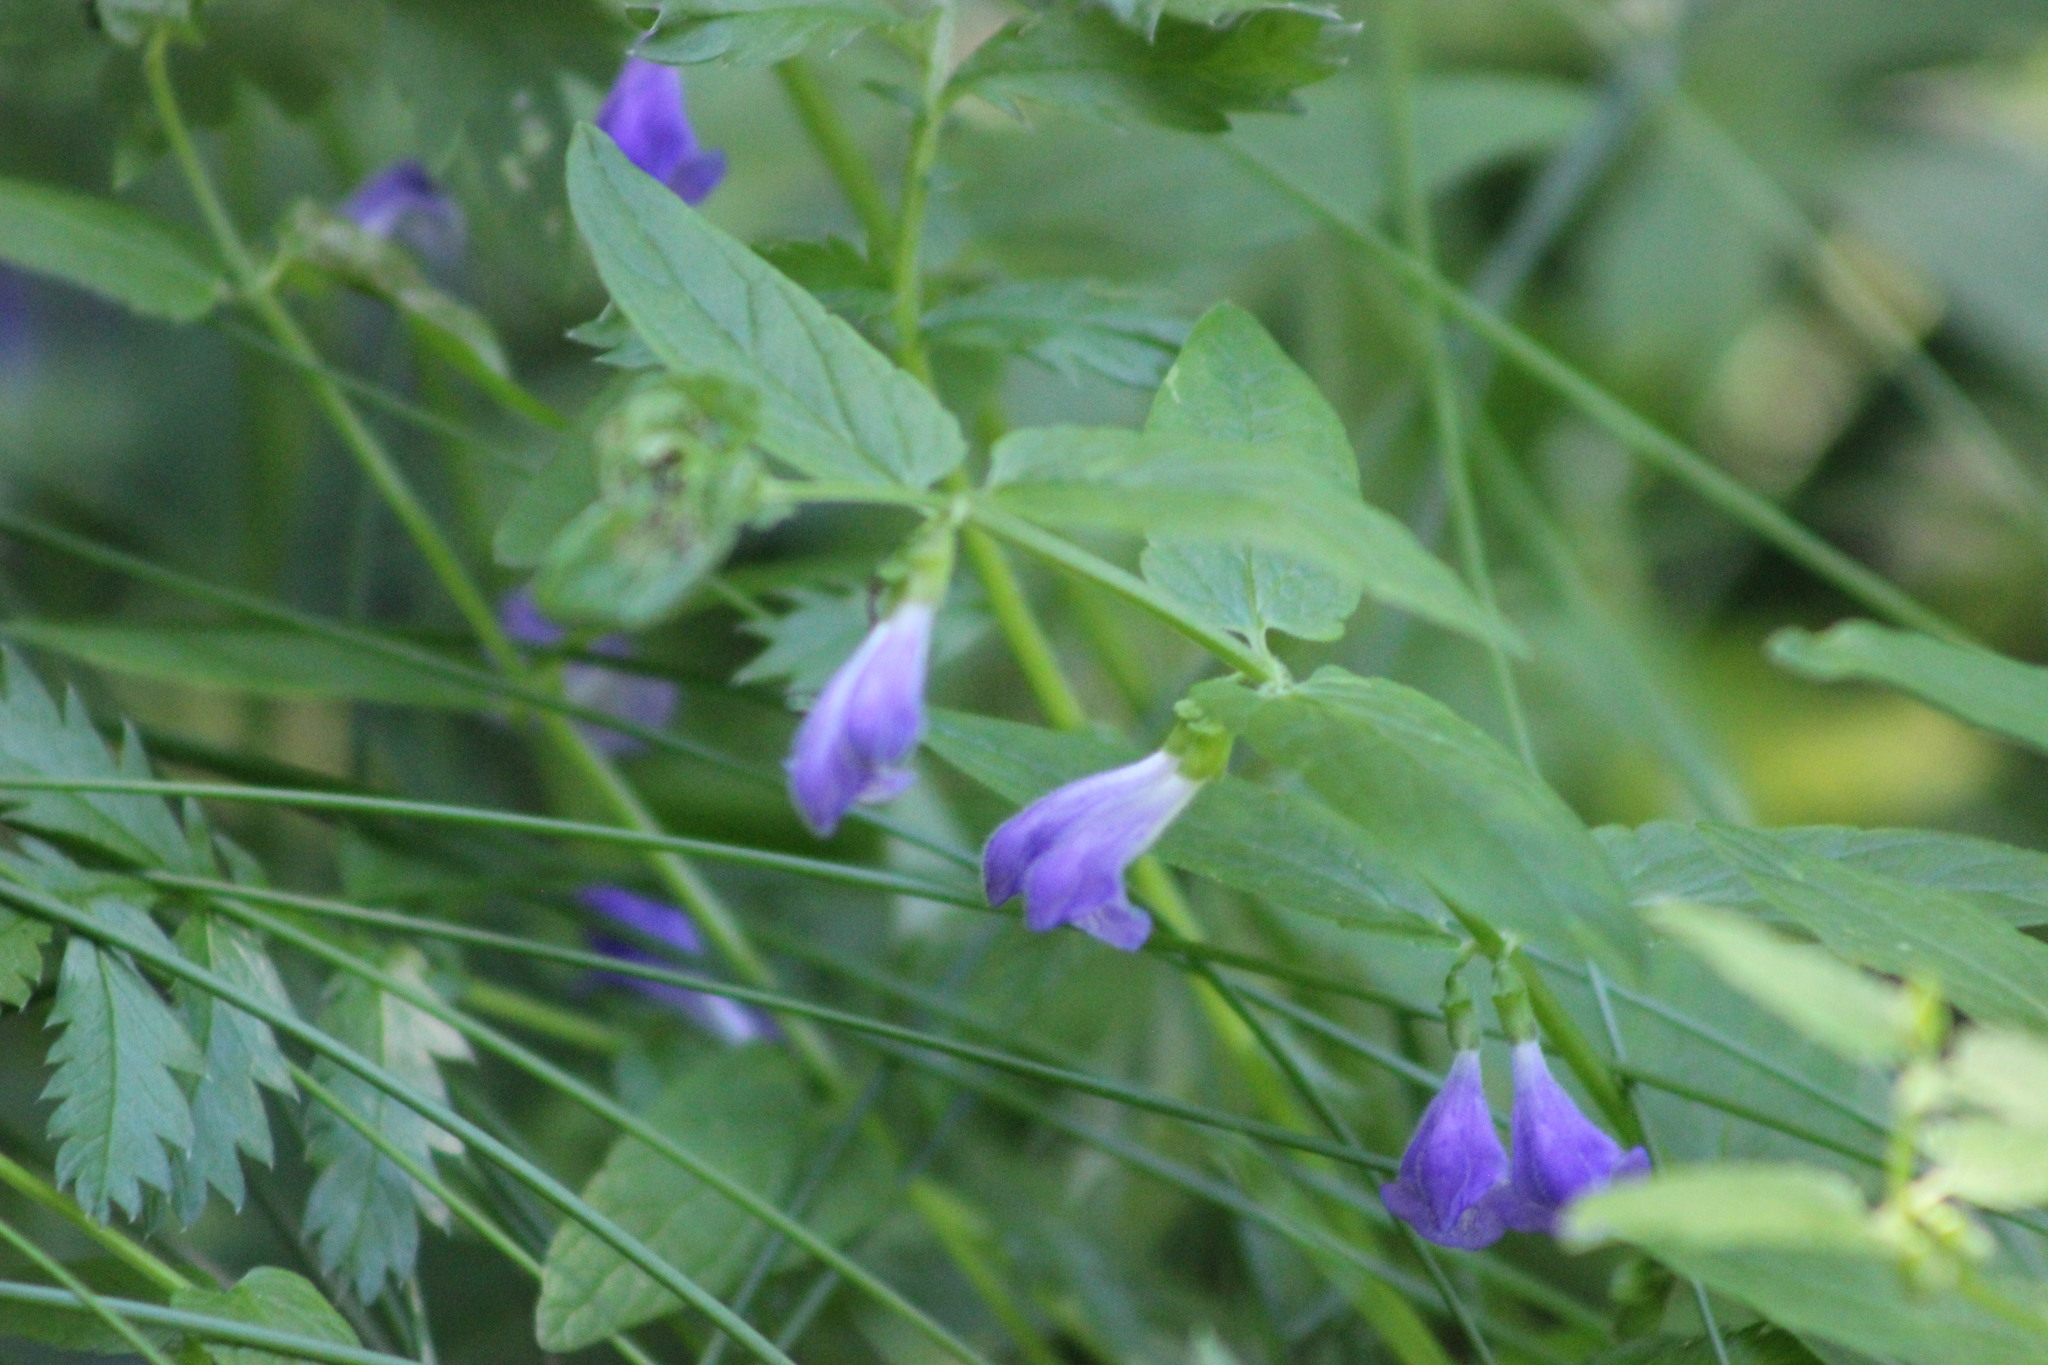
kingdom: Plantae
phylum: Tracheophyta
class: Magnoliopsida
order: Lamiales
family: Lamiaceae
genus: Scutellaria
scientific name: Scutellaria galericulata
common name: Skullcap
